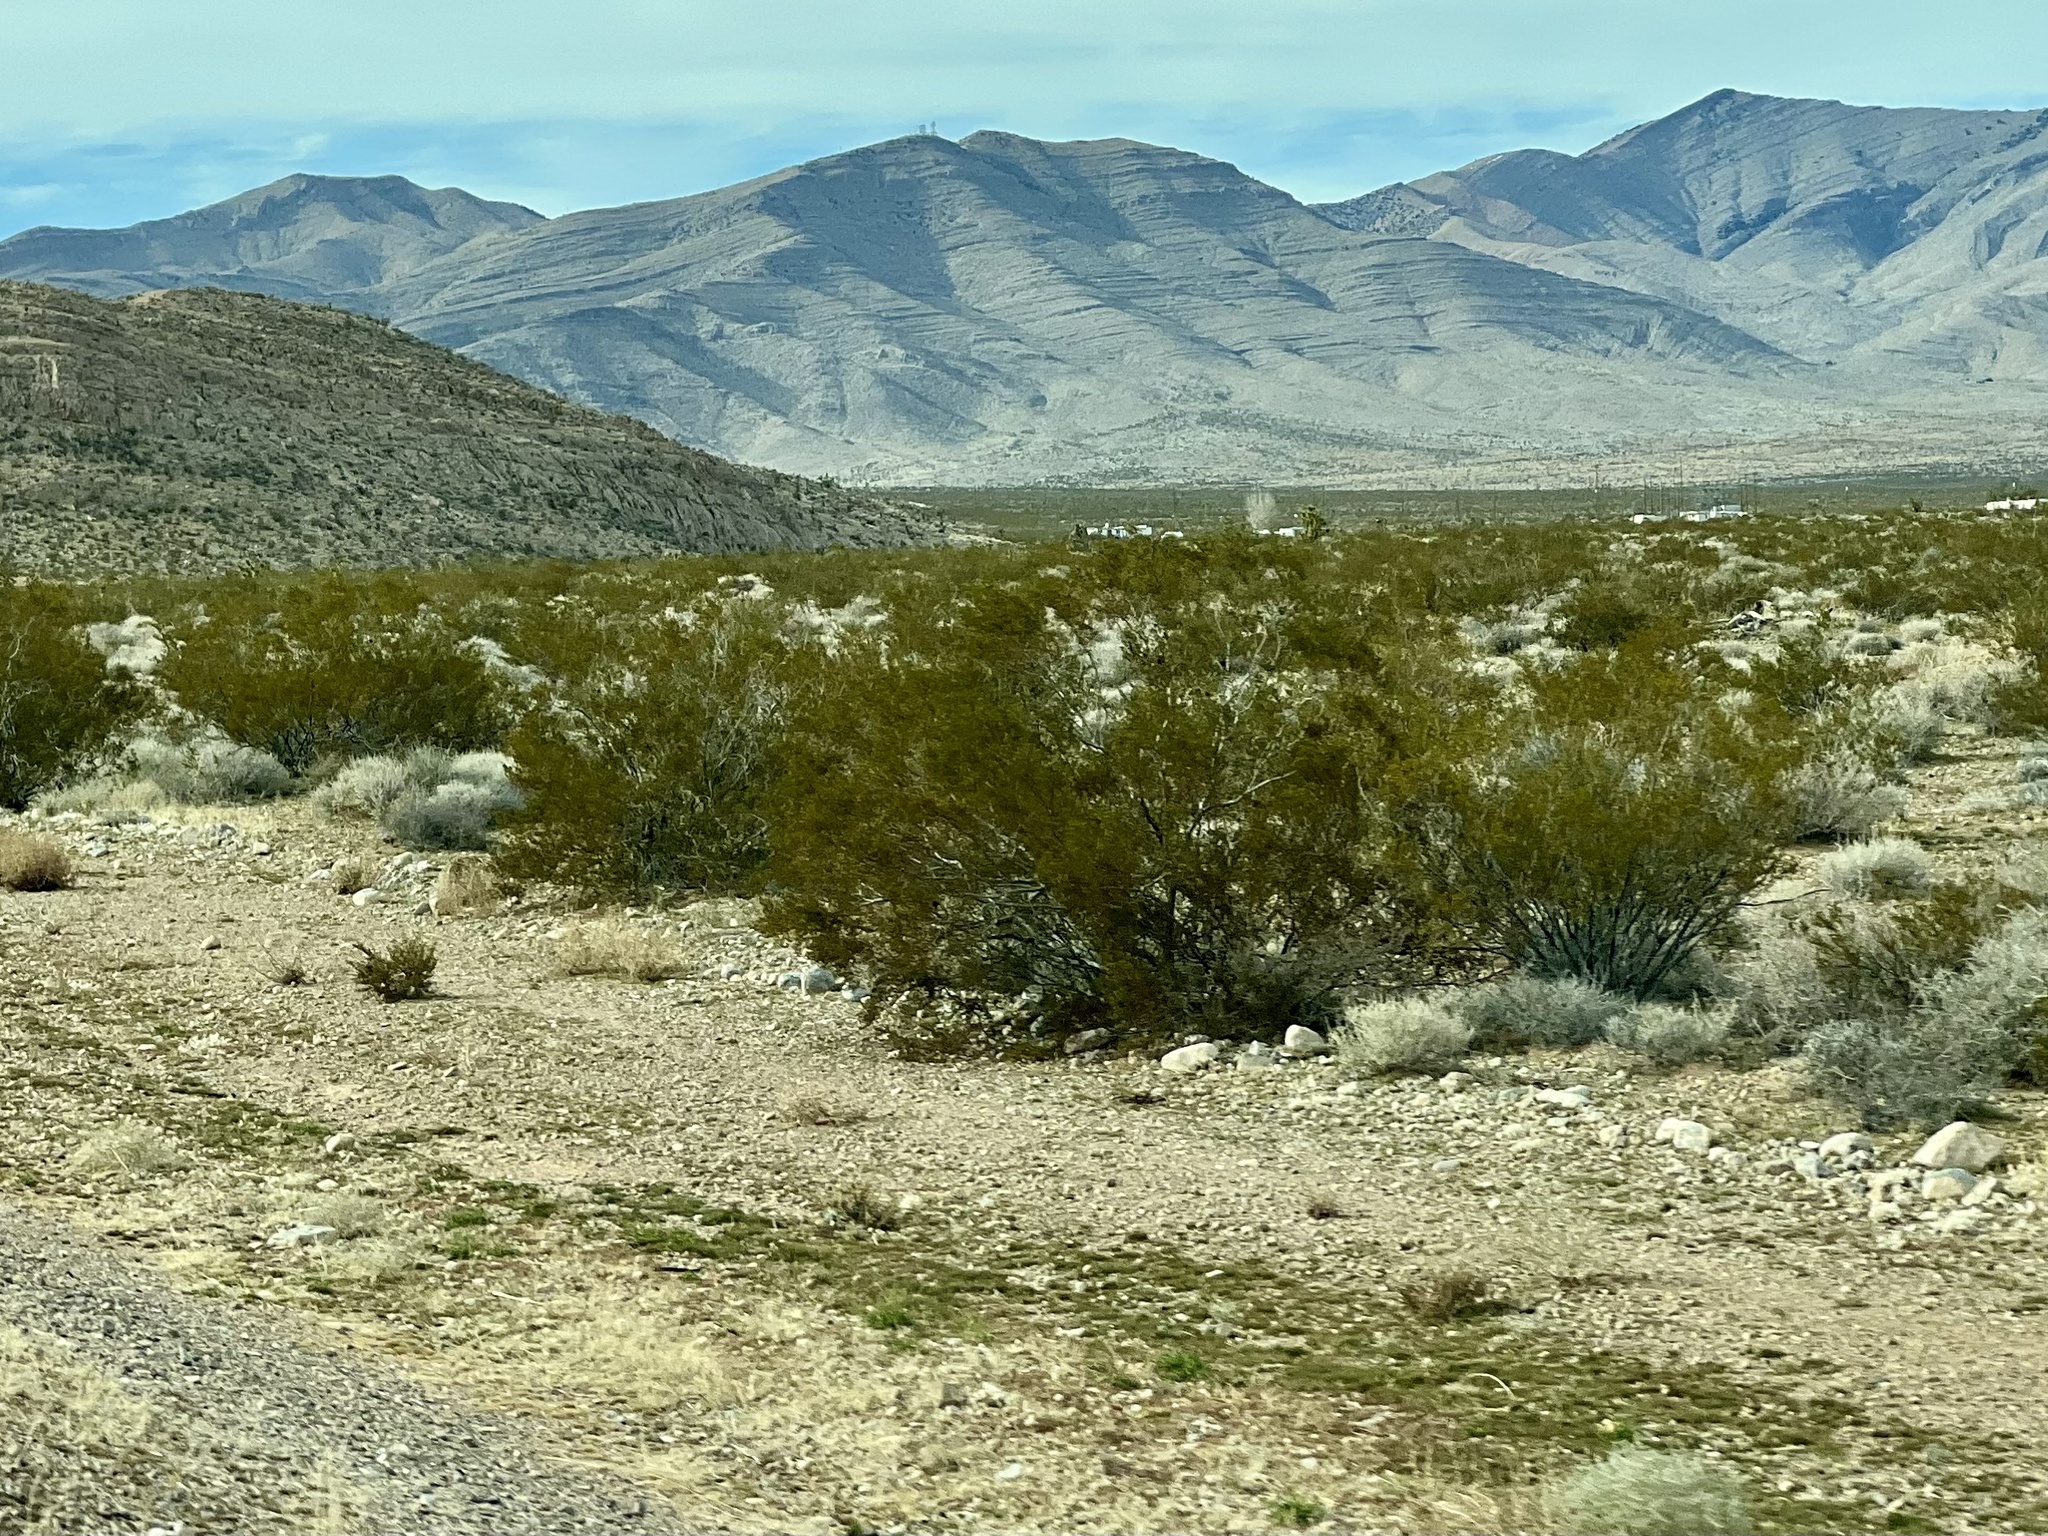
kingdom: Plantae
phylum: Tracheophyta
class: Magnoliopsida
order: Zygophyllales
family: Zygophyllaceae
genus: Larrea
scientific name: Larrea tridentata
